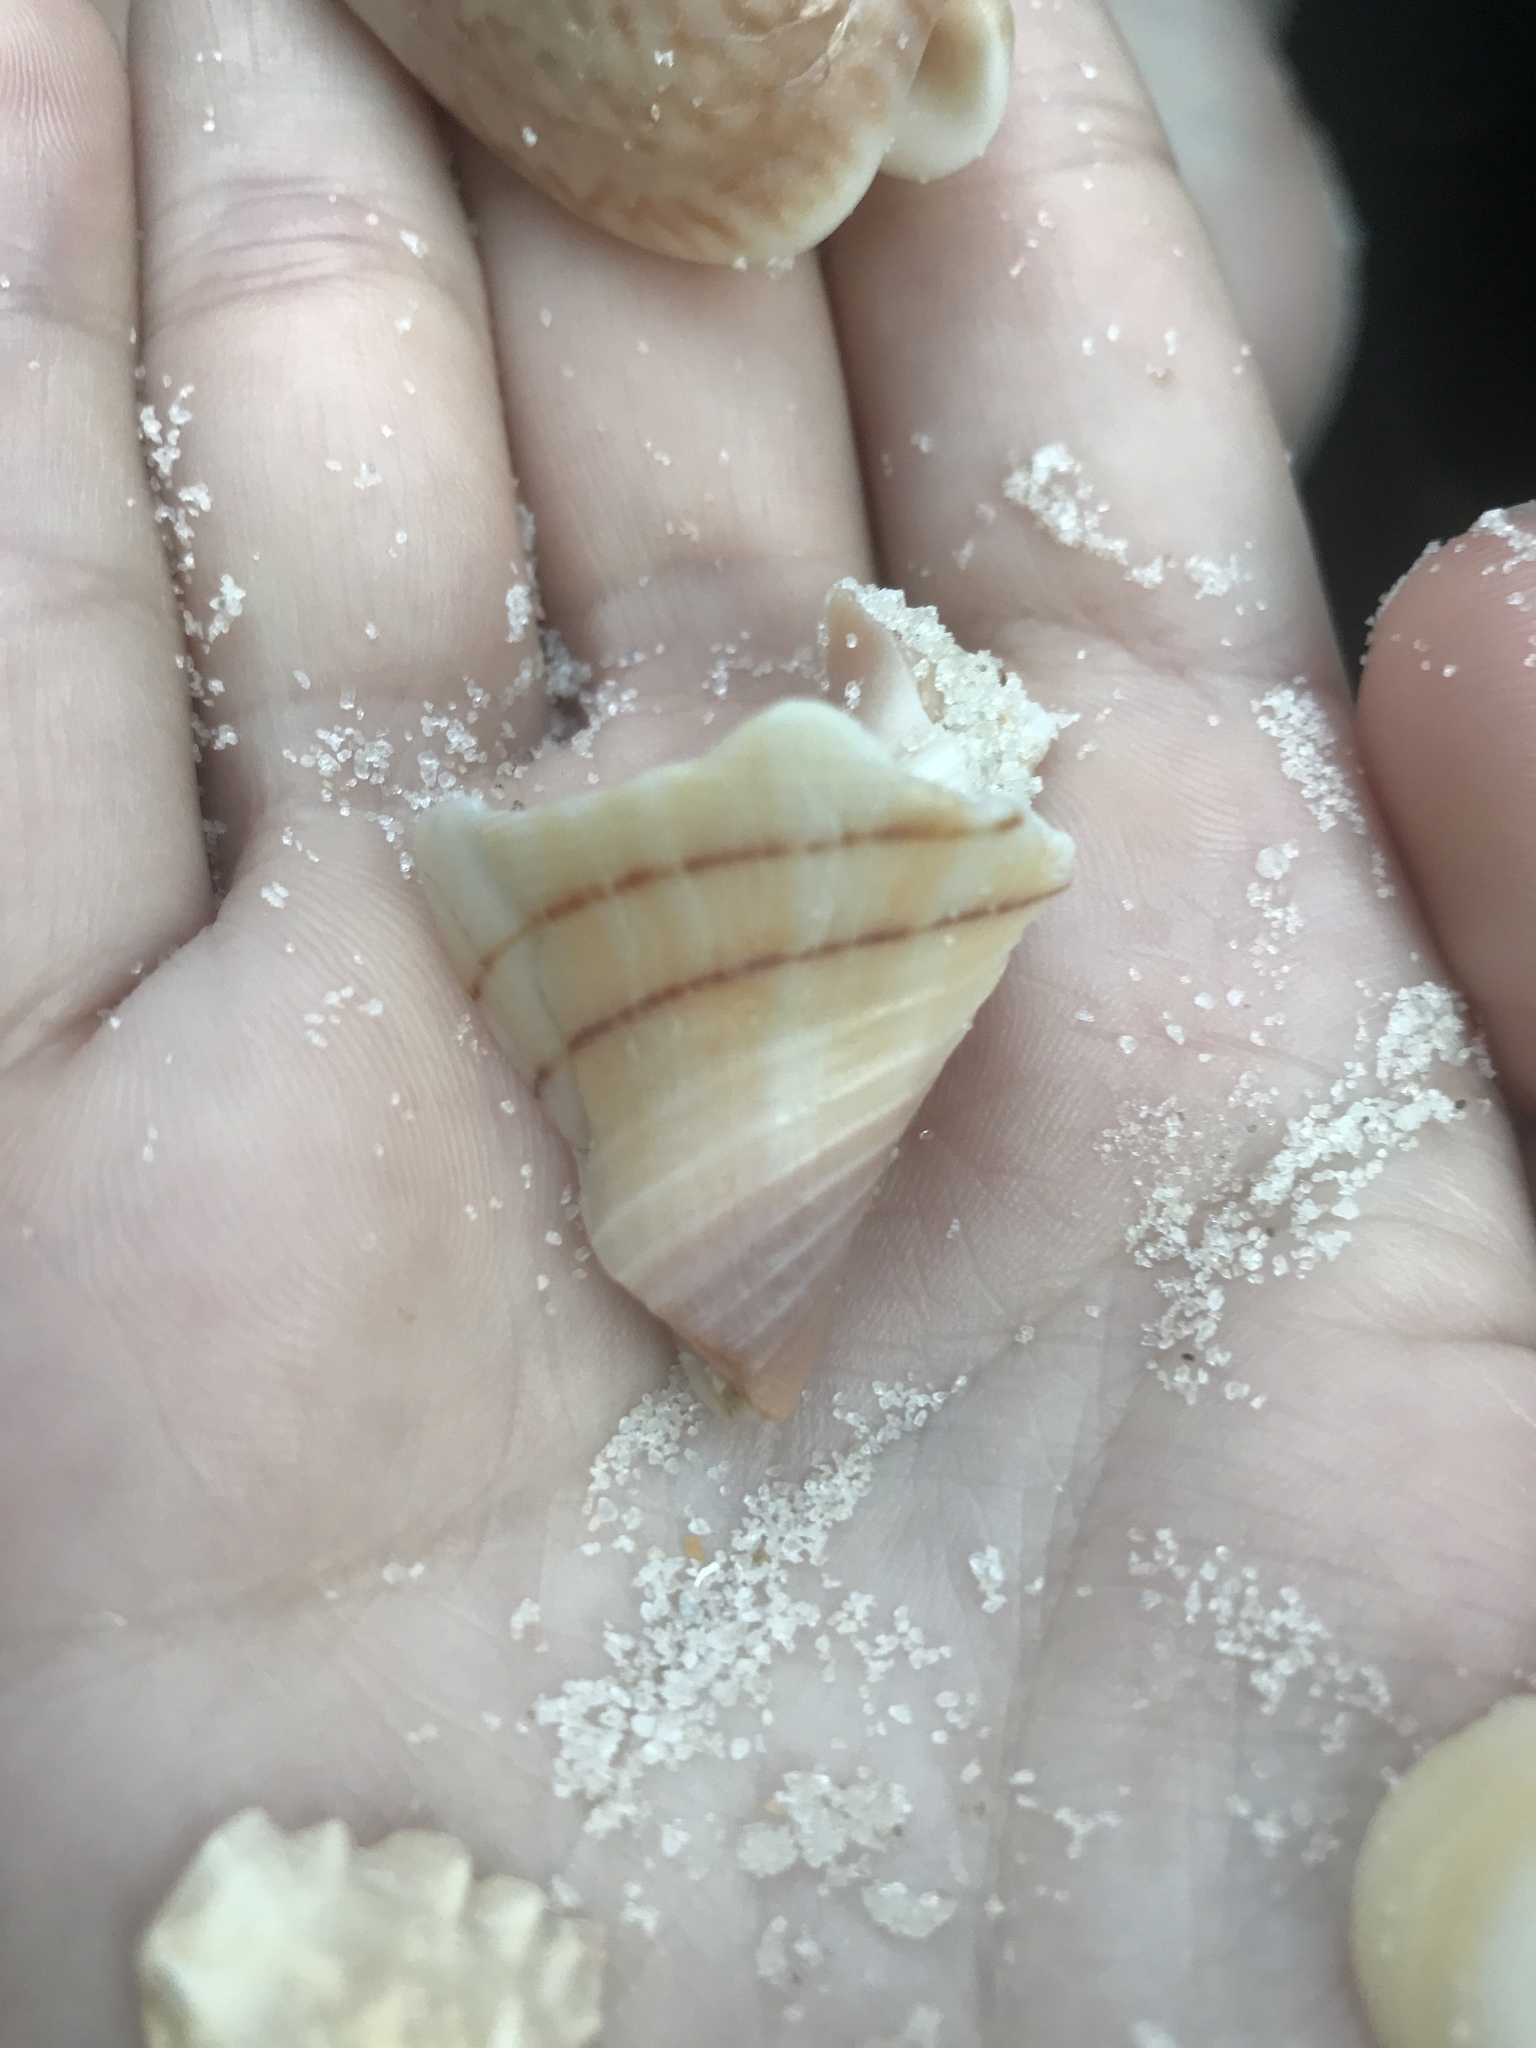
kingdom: Animalia
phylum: Mollusca
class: Gastropoda
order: Neogastropoda
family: Fasciolariidae
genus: Cinctura
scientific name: Cinctura hunteria
